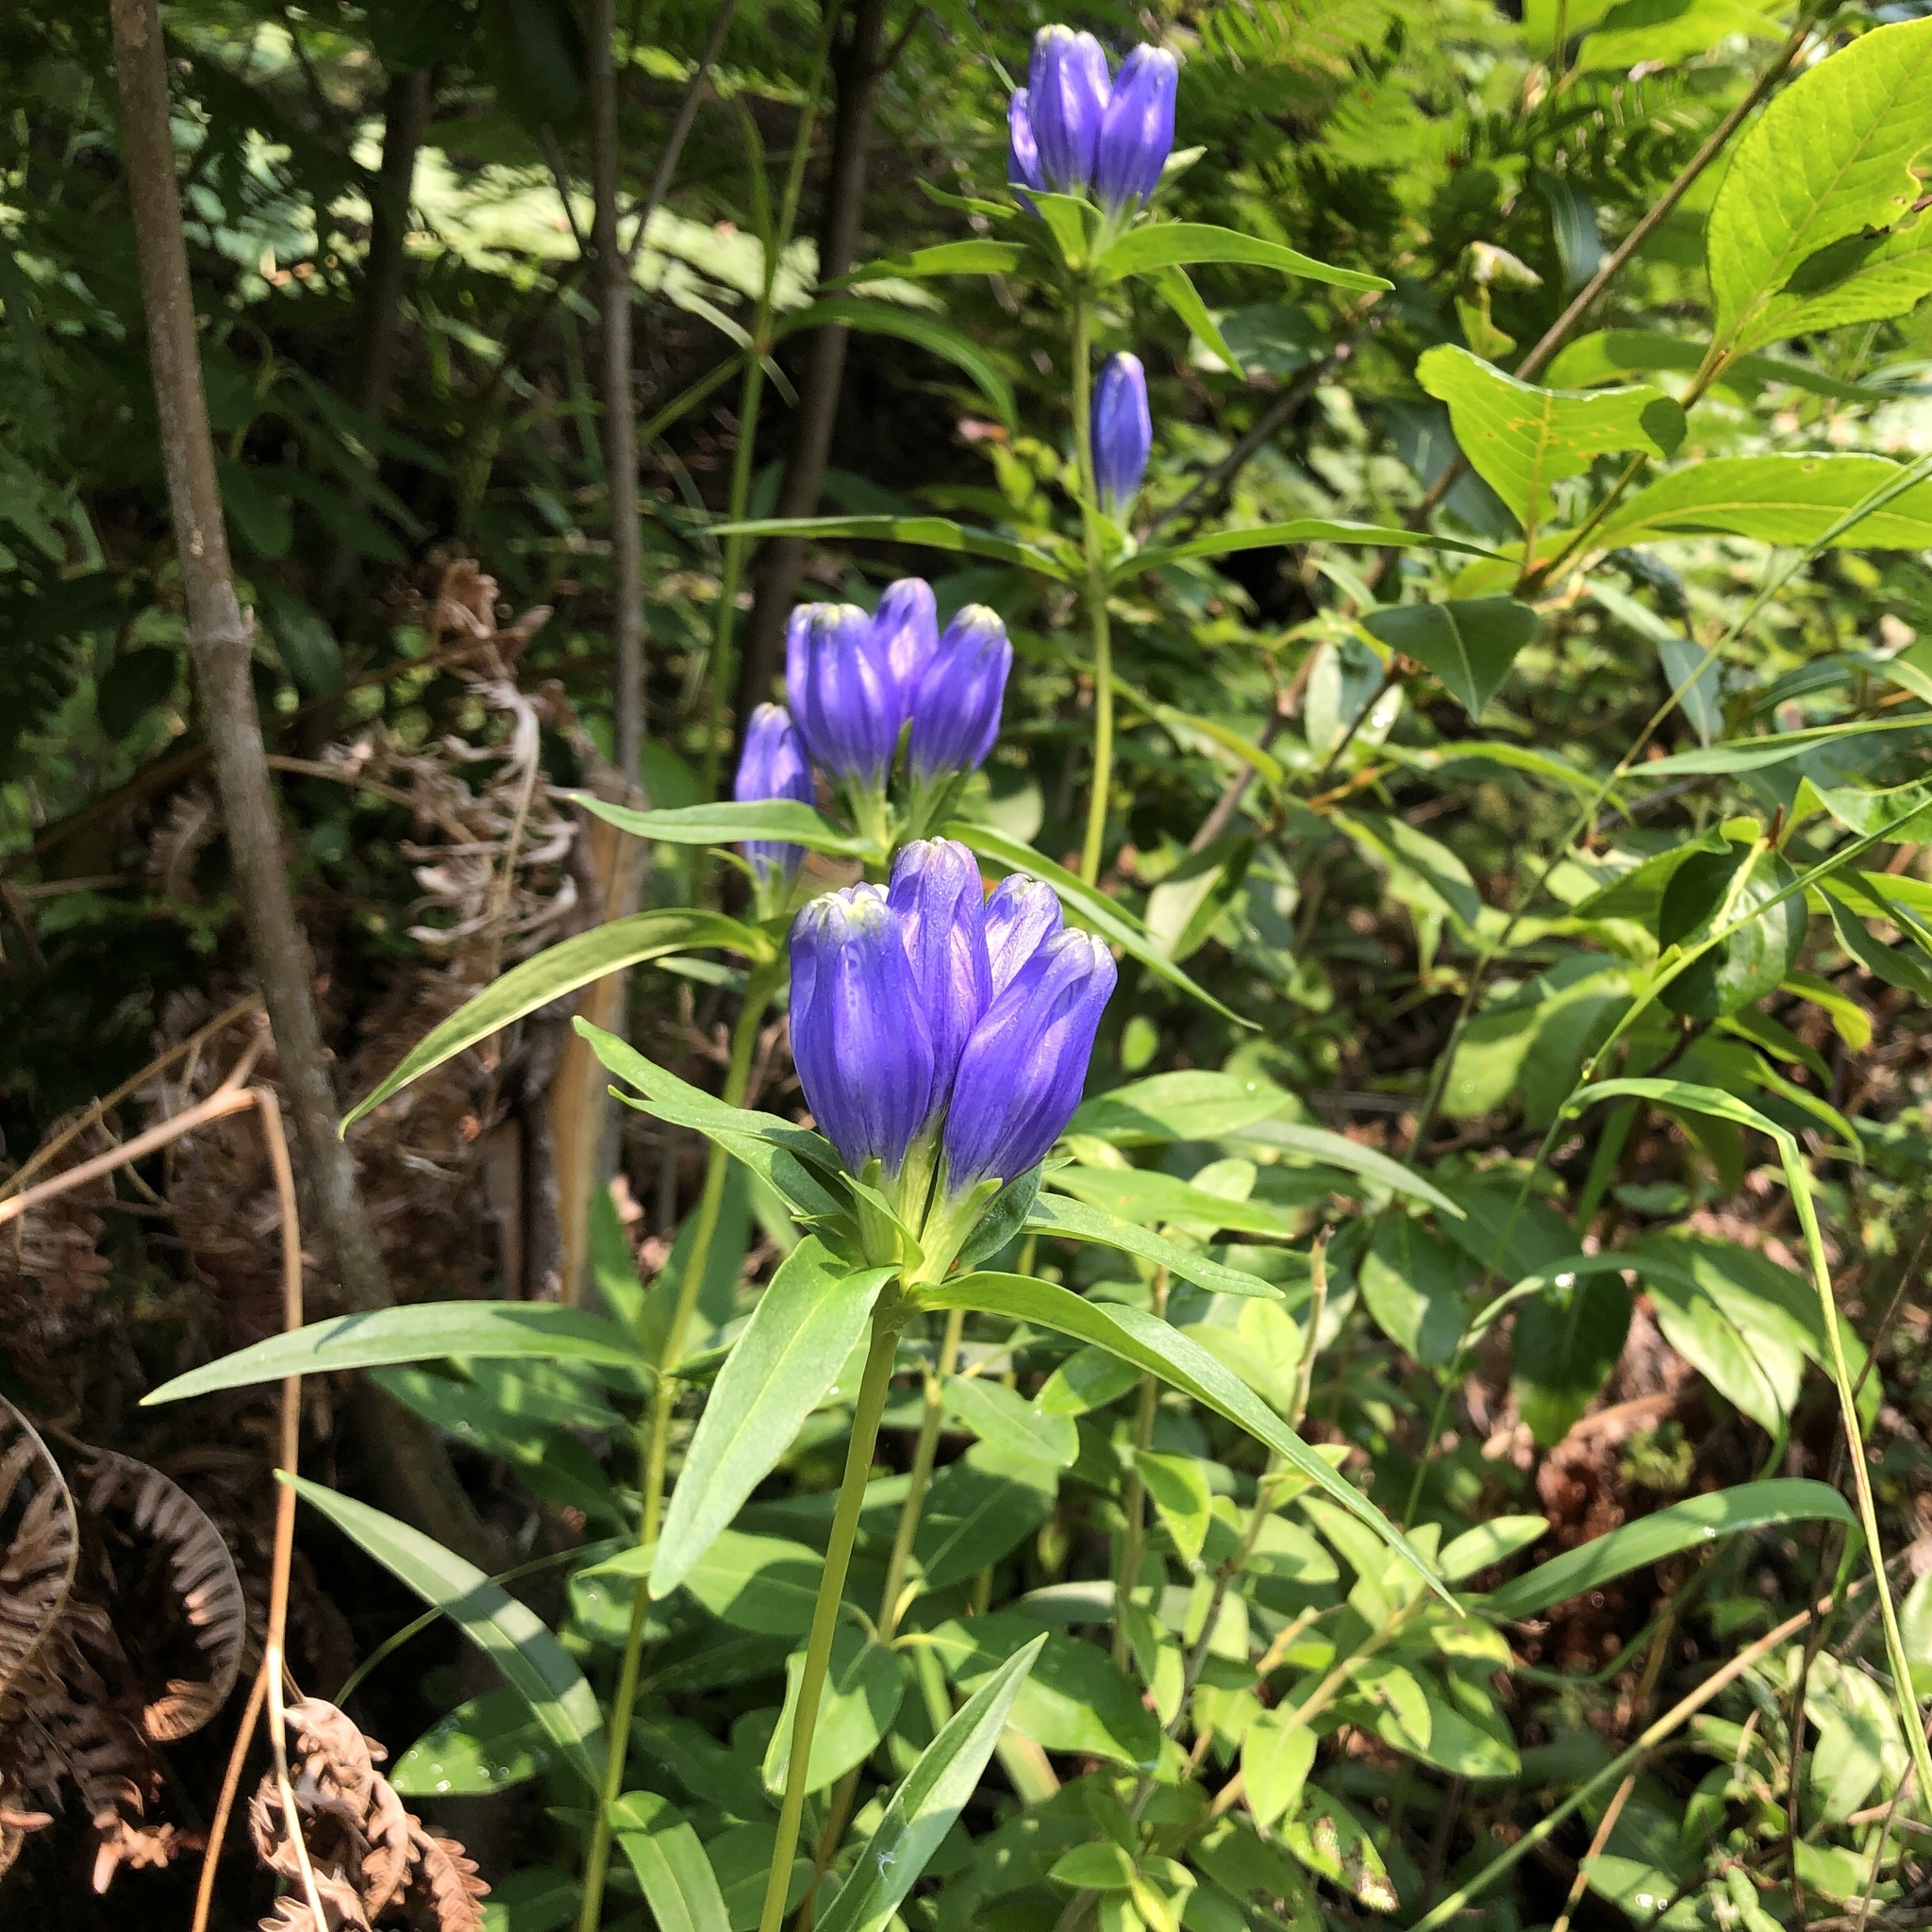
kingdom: Plantae
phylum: Tracheophyta
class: Magnoliopsida
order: Gentianales
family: Gentianaceae
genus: Gentiana
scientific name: Gentiana linearis
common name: Bastard gentian
